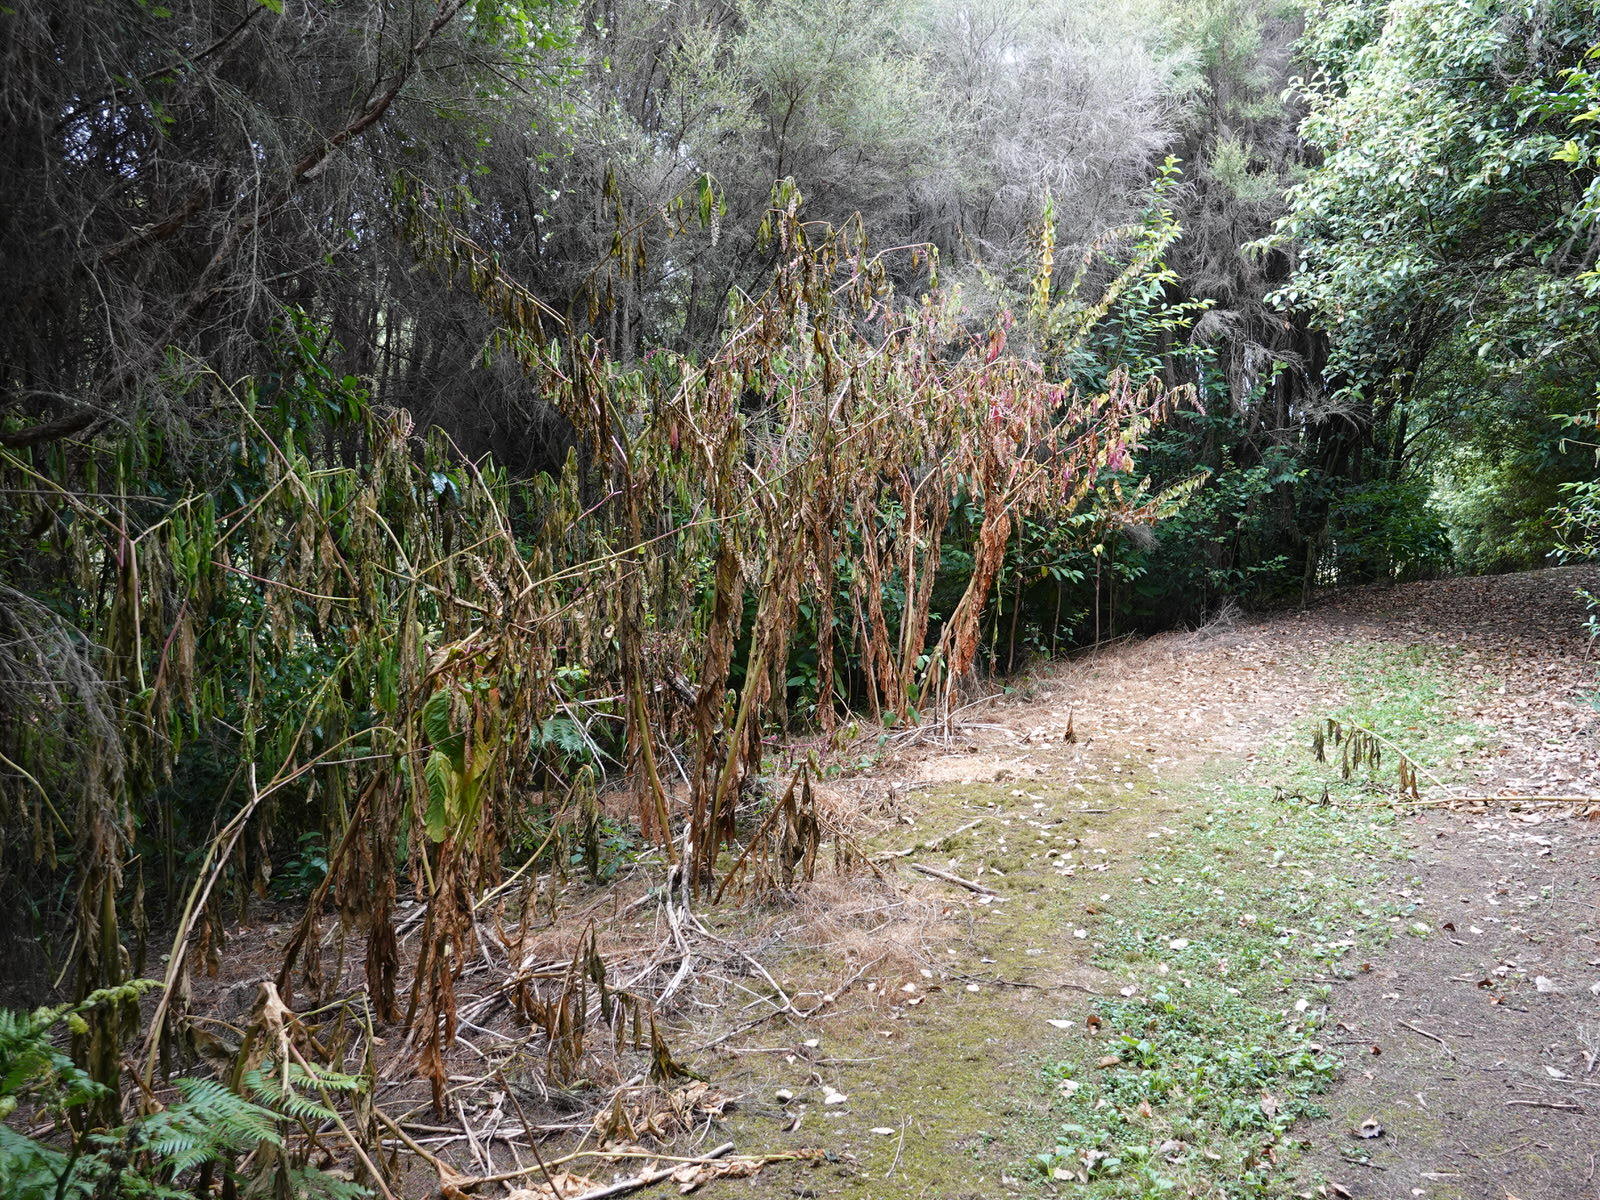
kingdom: Plantae
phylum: Tracheophyta
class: Magnoliopsida
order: Caryophyllales
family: Phytolaccaceae
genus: Phytolacca
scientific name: Phytolacca americana
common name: American pokeweed
